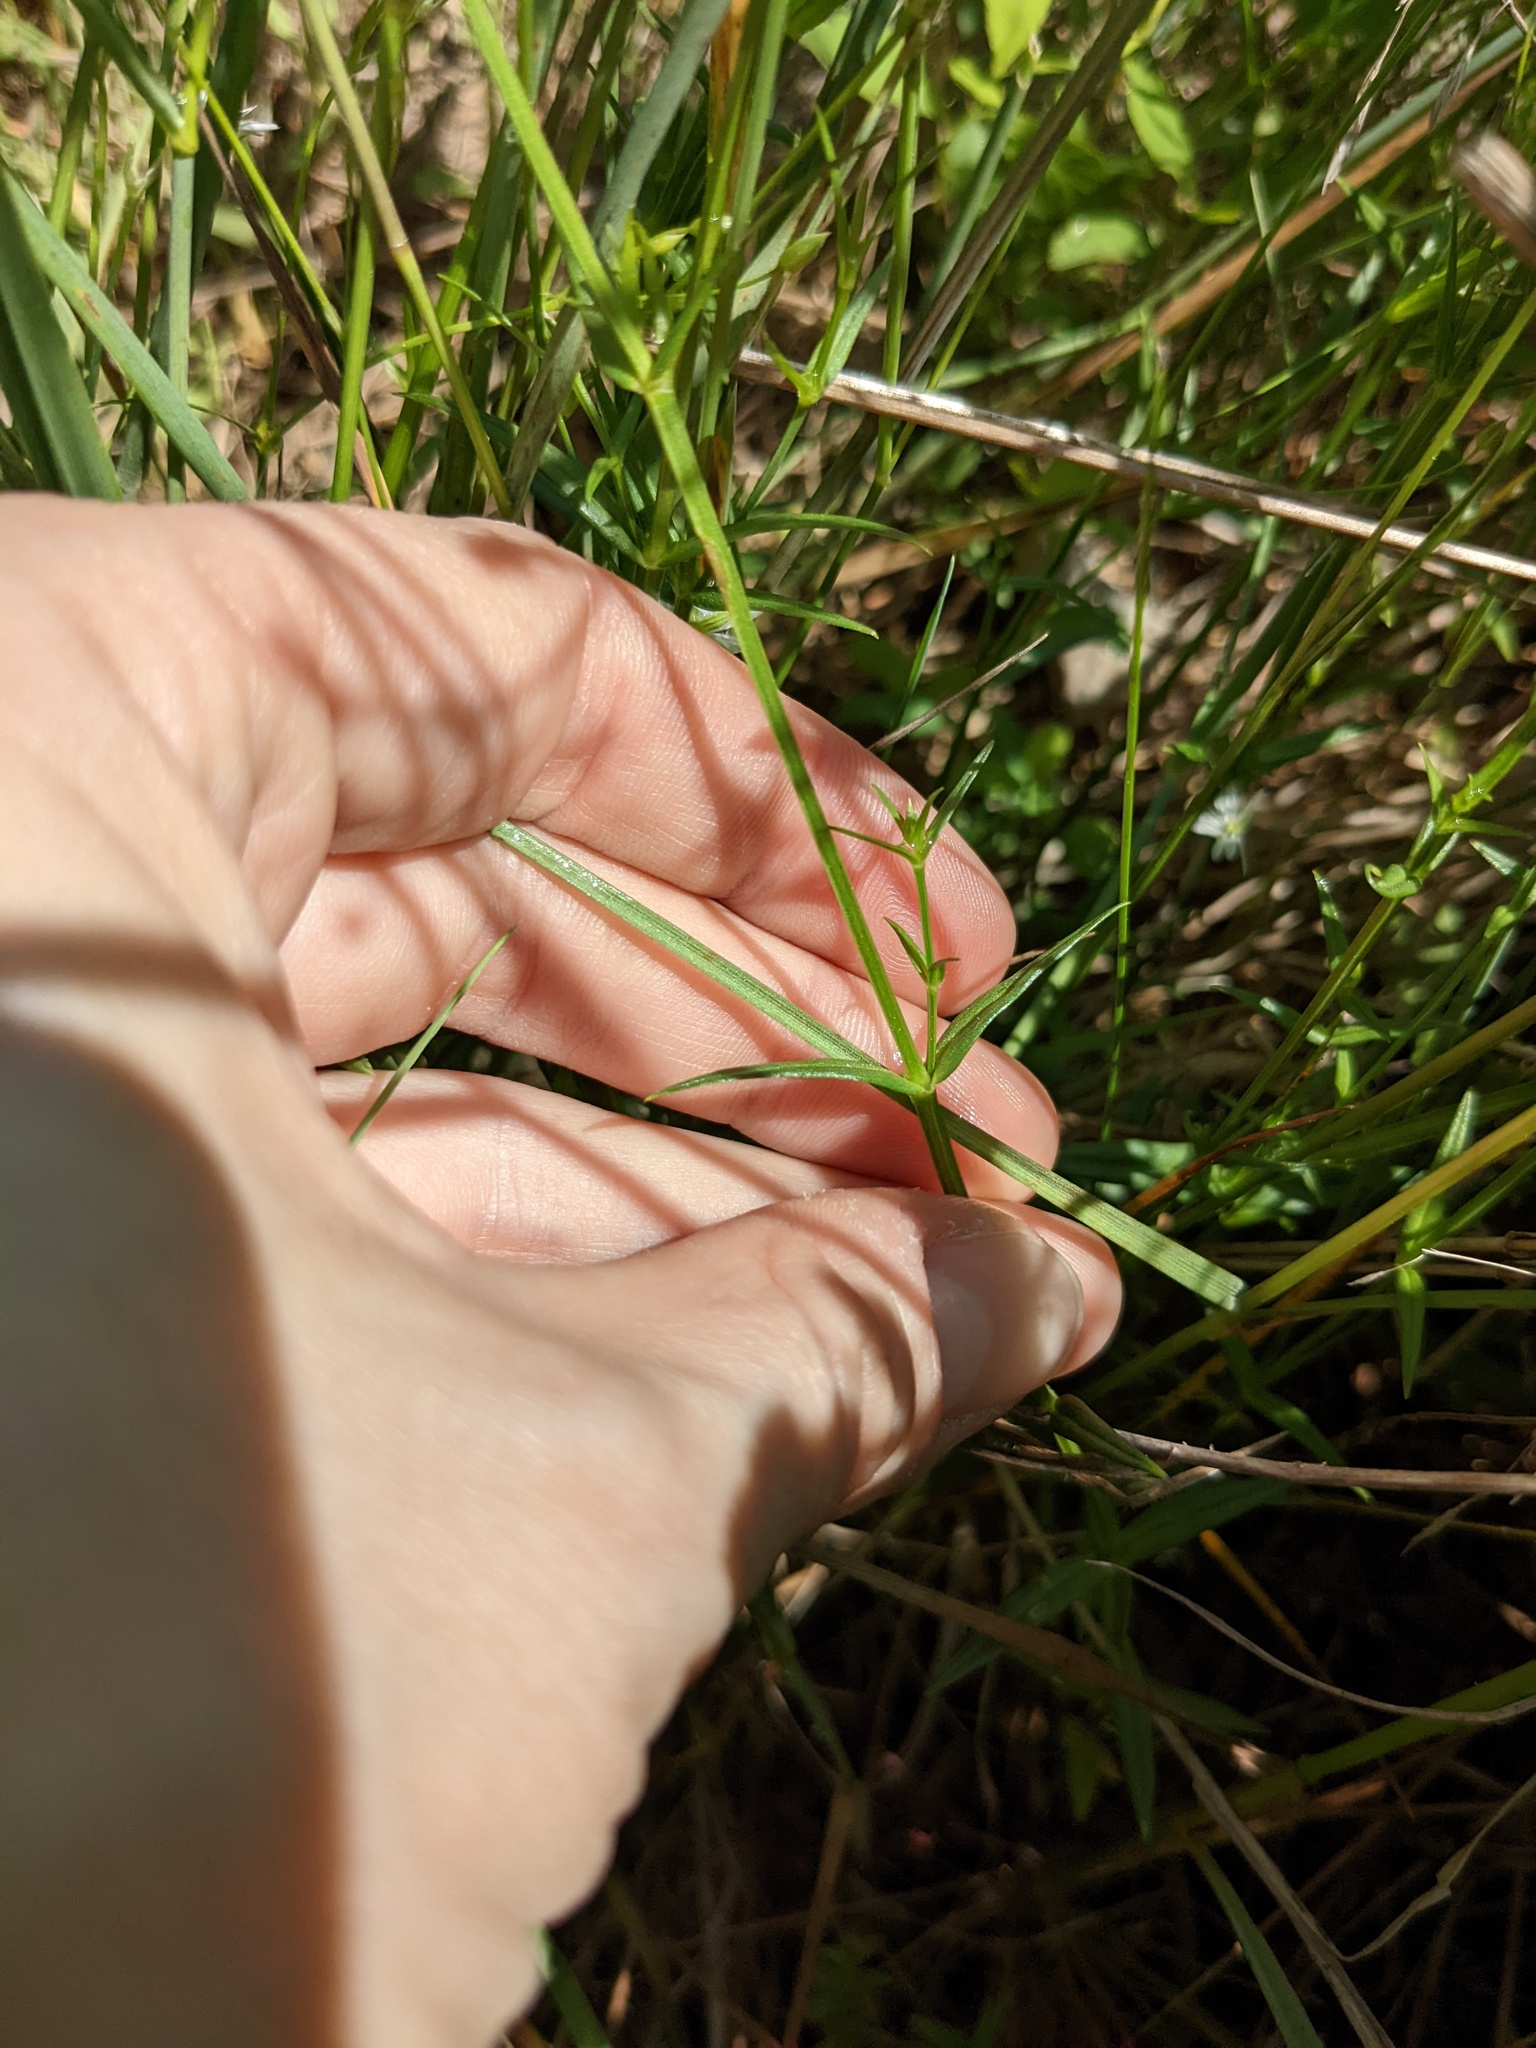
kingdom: Plantae
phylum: Tracheophyta
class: Magnoliopsida
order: Caryophyllales
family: Caryophyllaceae
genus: Stellaria
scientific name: Stellaria graminea
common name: Grass-like starwort
